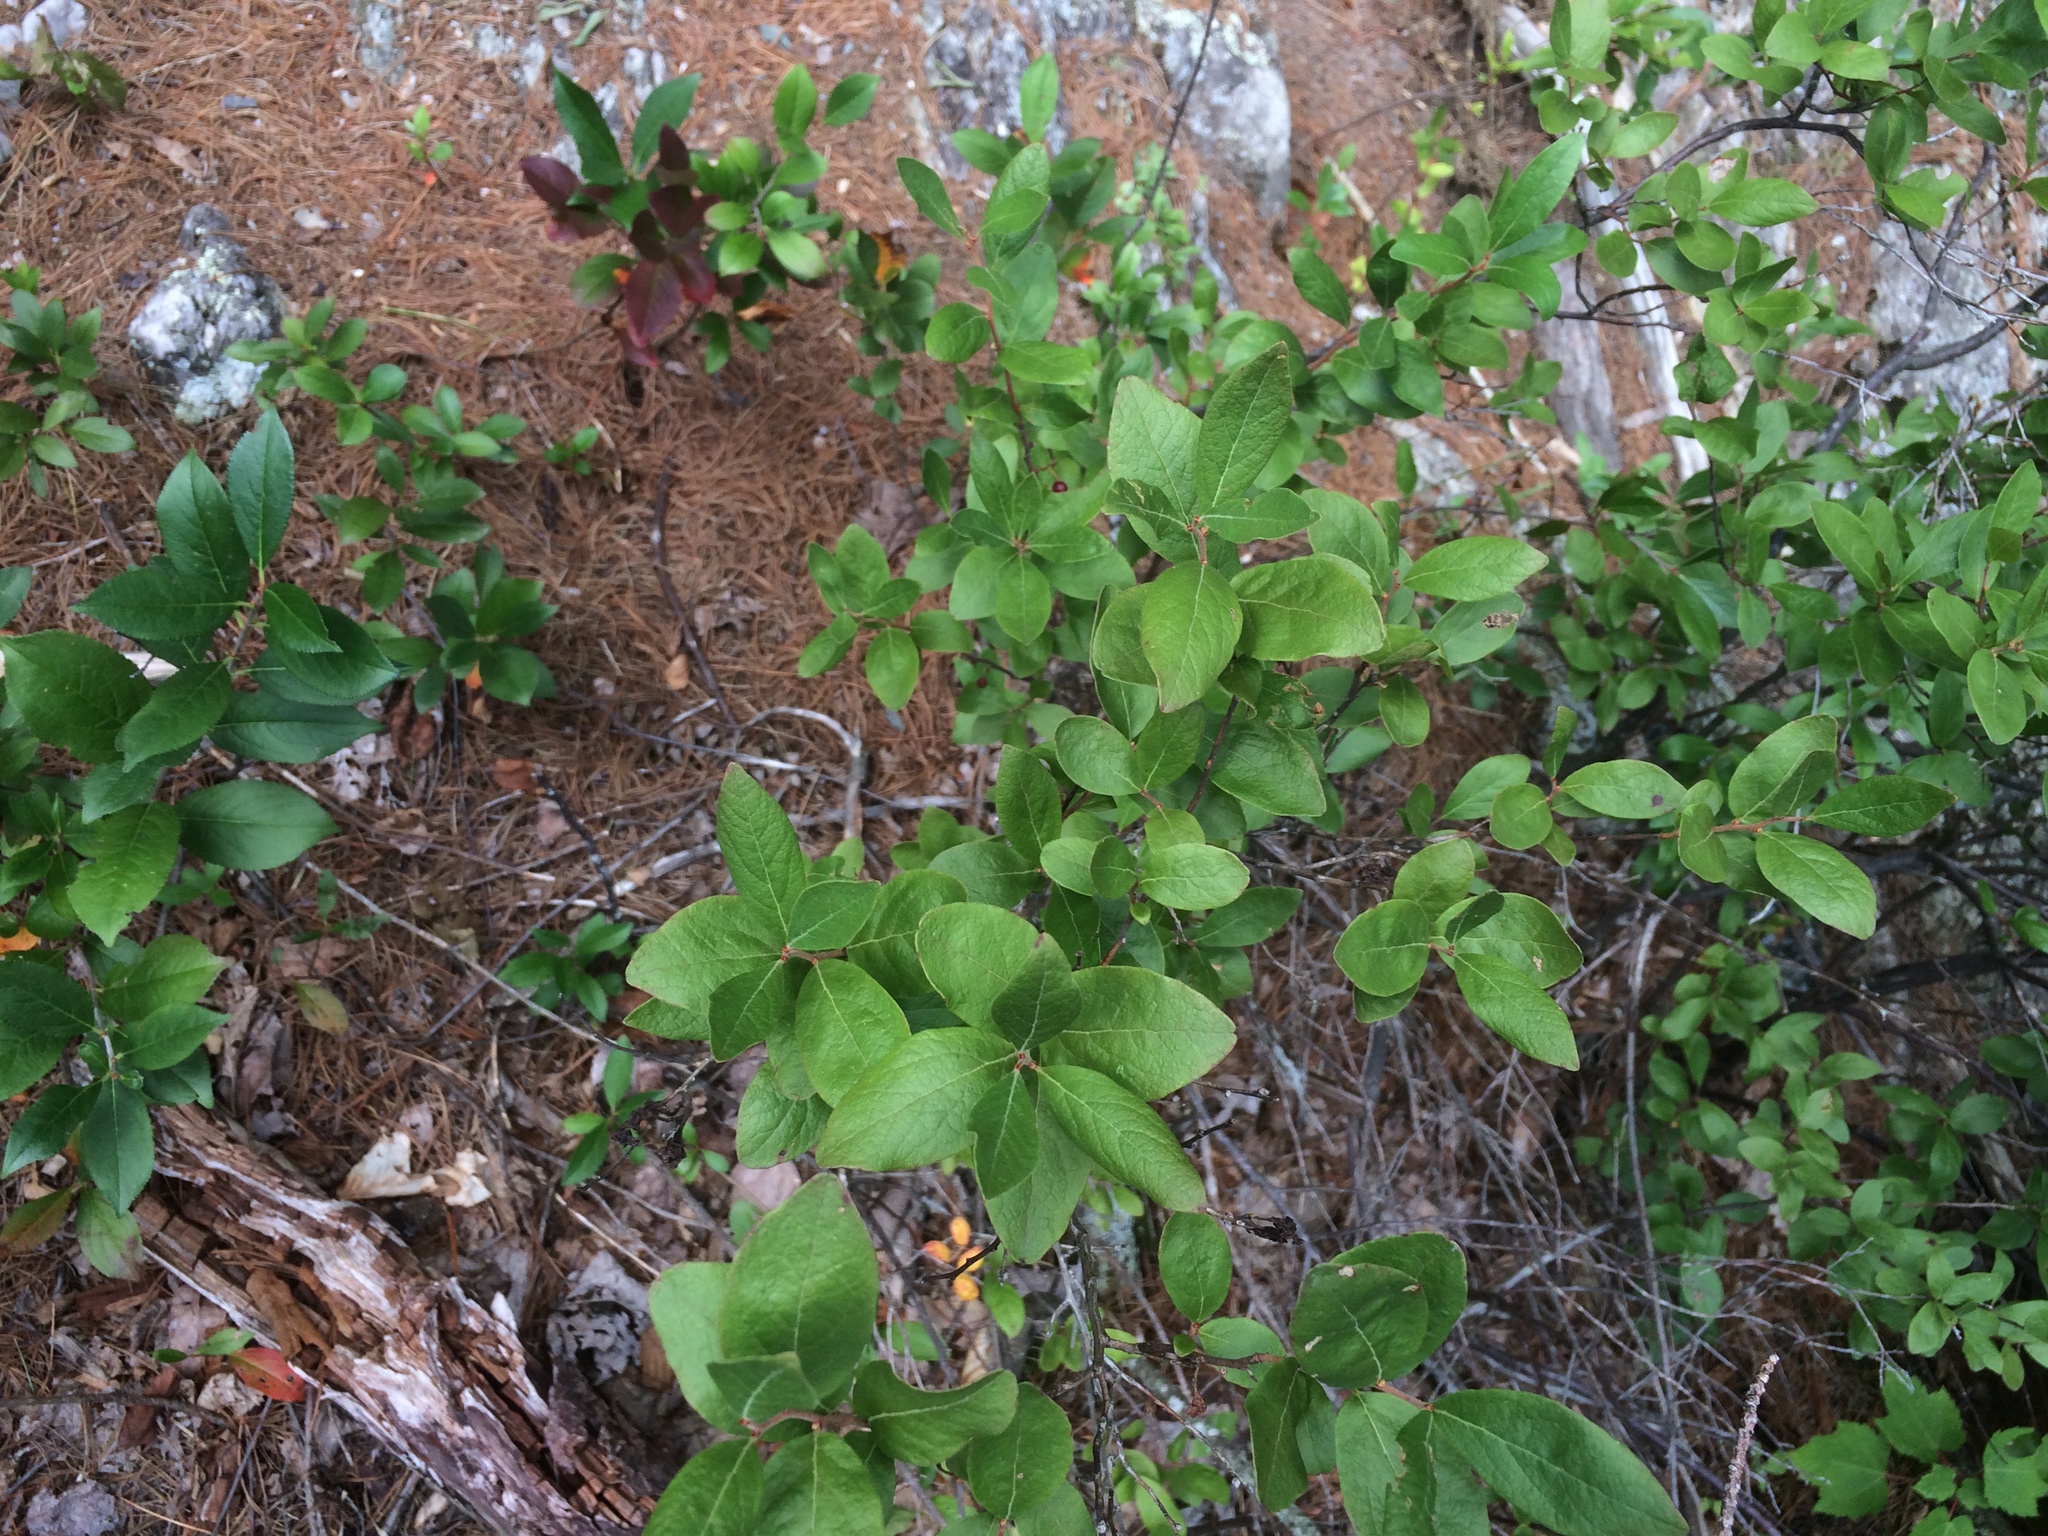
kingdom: Plantae
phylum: Tracheophyta
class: Magnoliopsida
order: Ericales
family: Ericaceae
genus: Gaylussacia
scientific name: Gaylussacia baccata
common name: Black huckleberry
